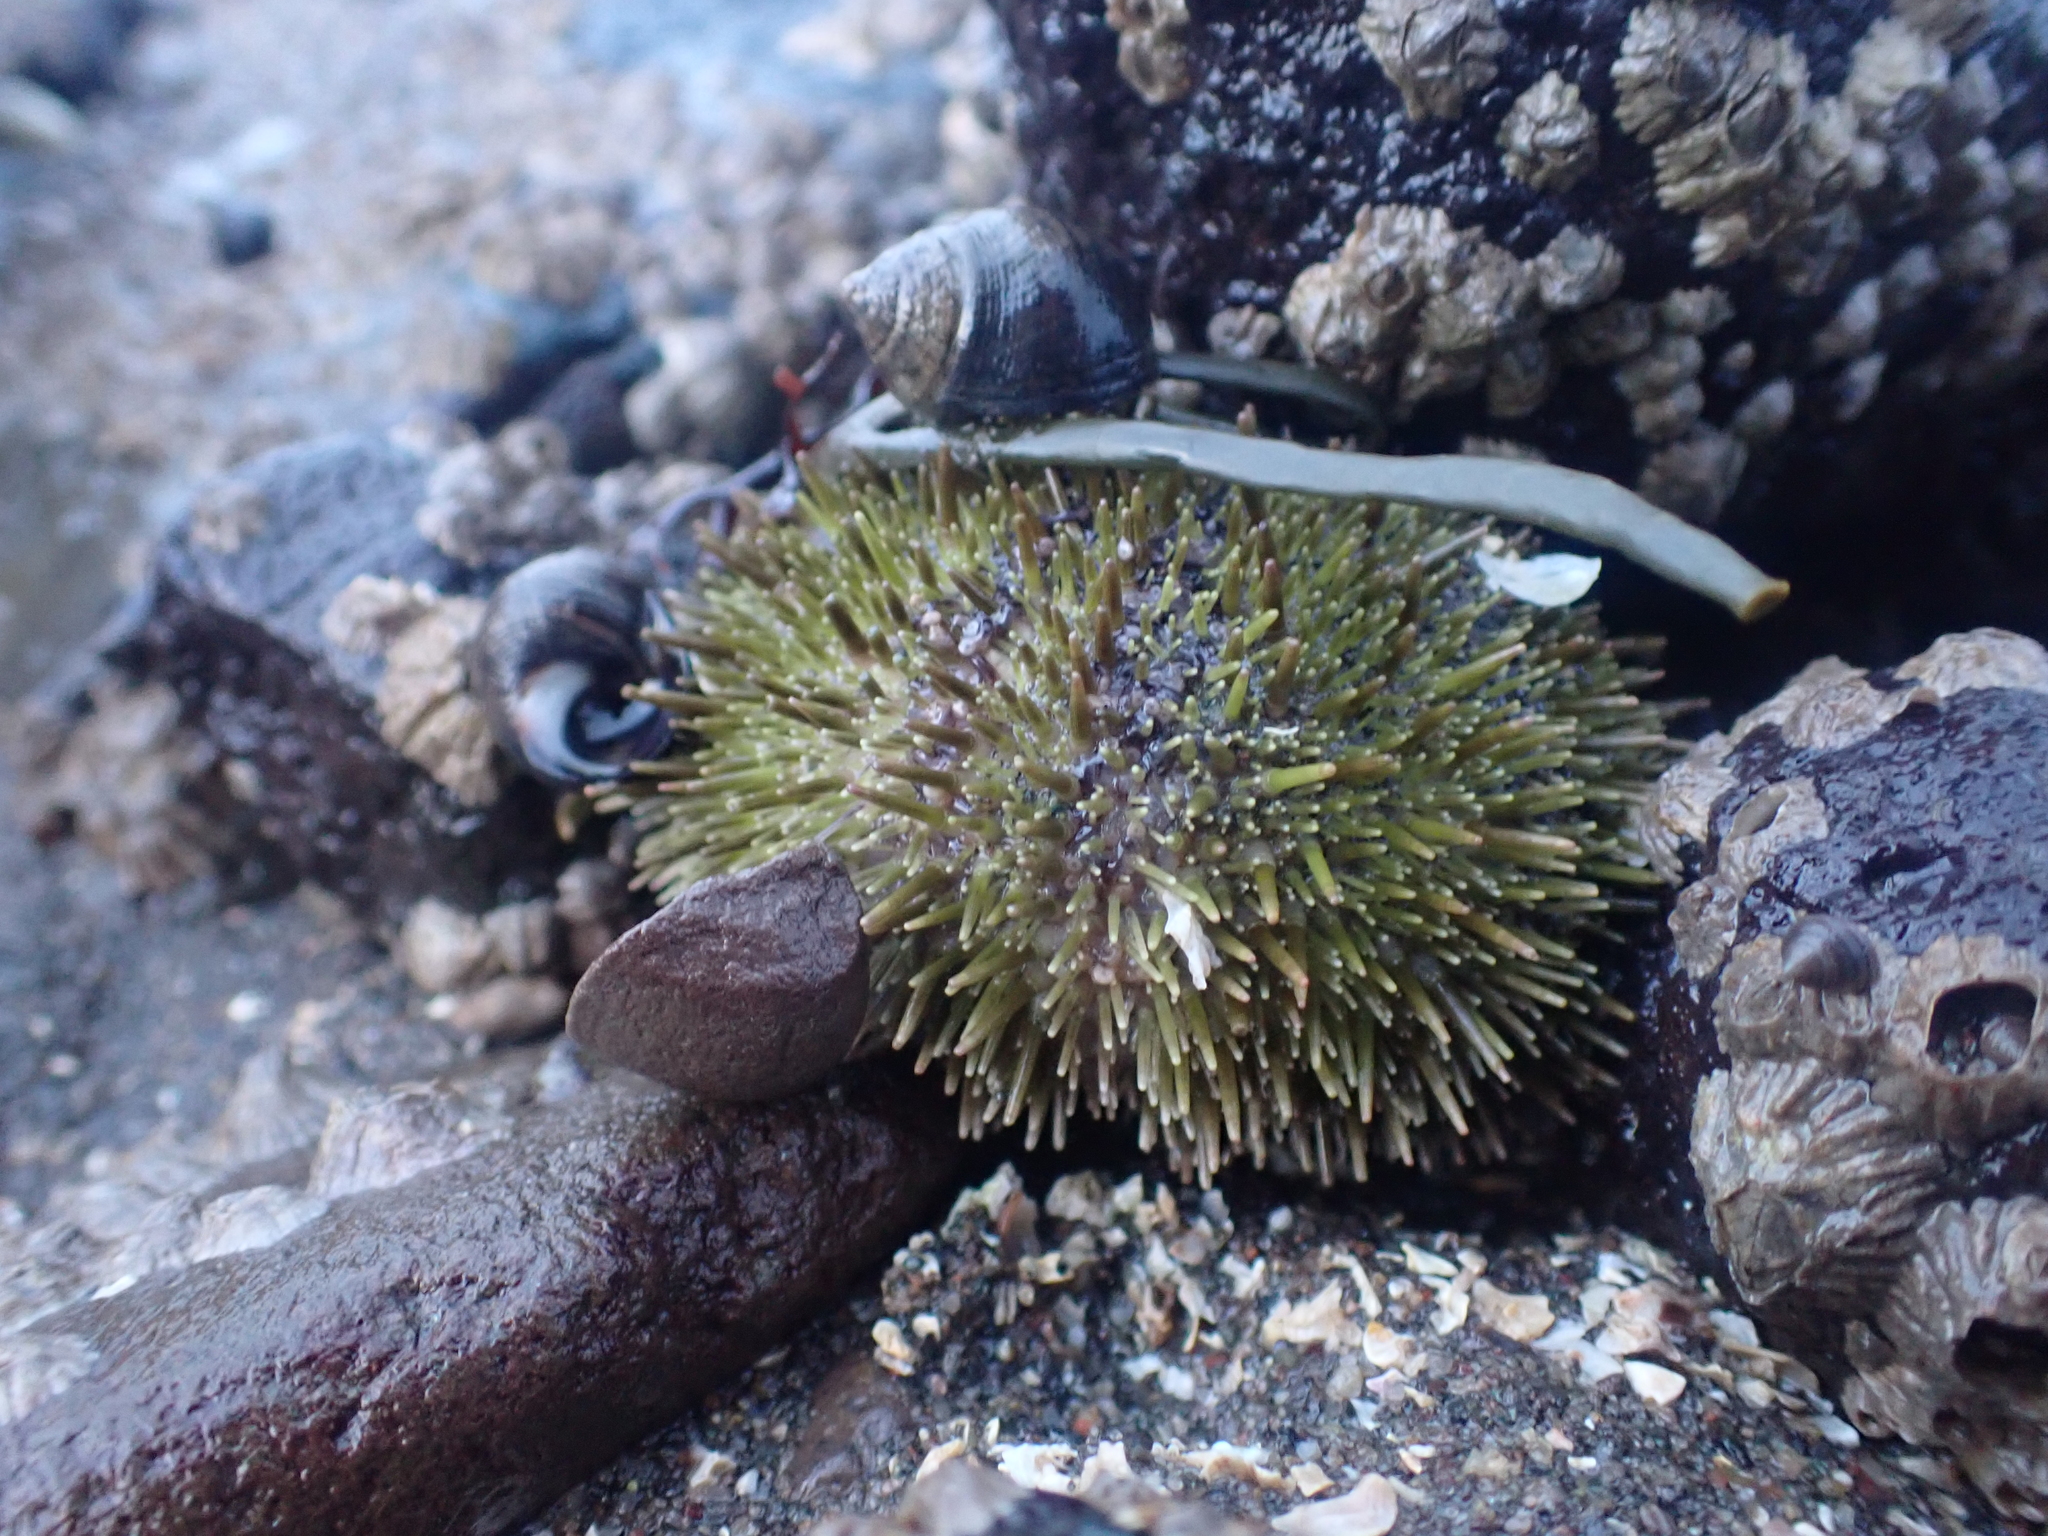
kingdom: Animalia
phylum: Echinodermata
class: Echinoidea
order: Camarodonta
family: Strongylocentrotidae
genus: Strongylocentrotus
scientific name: Strongylocentrotus droebachiensis
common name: Northern sea urchin
